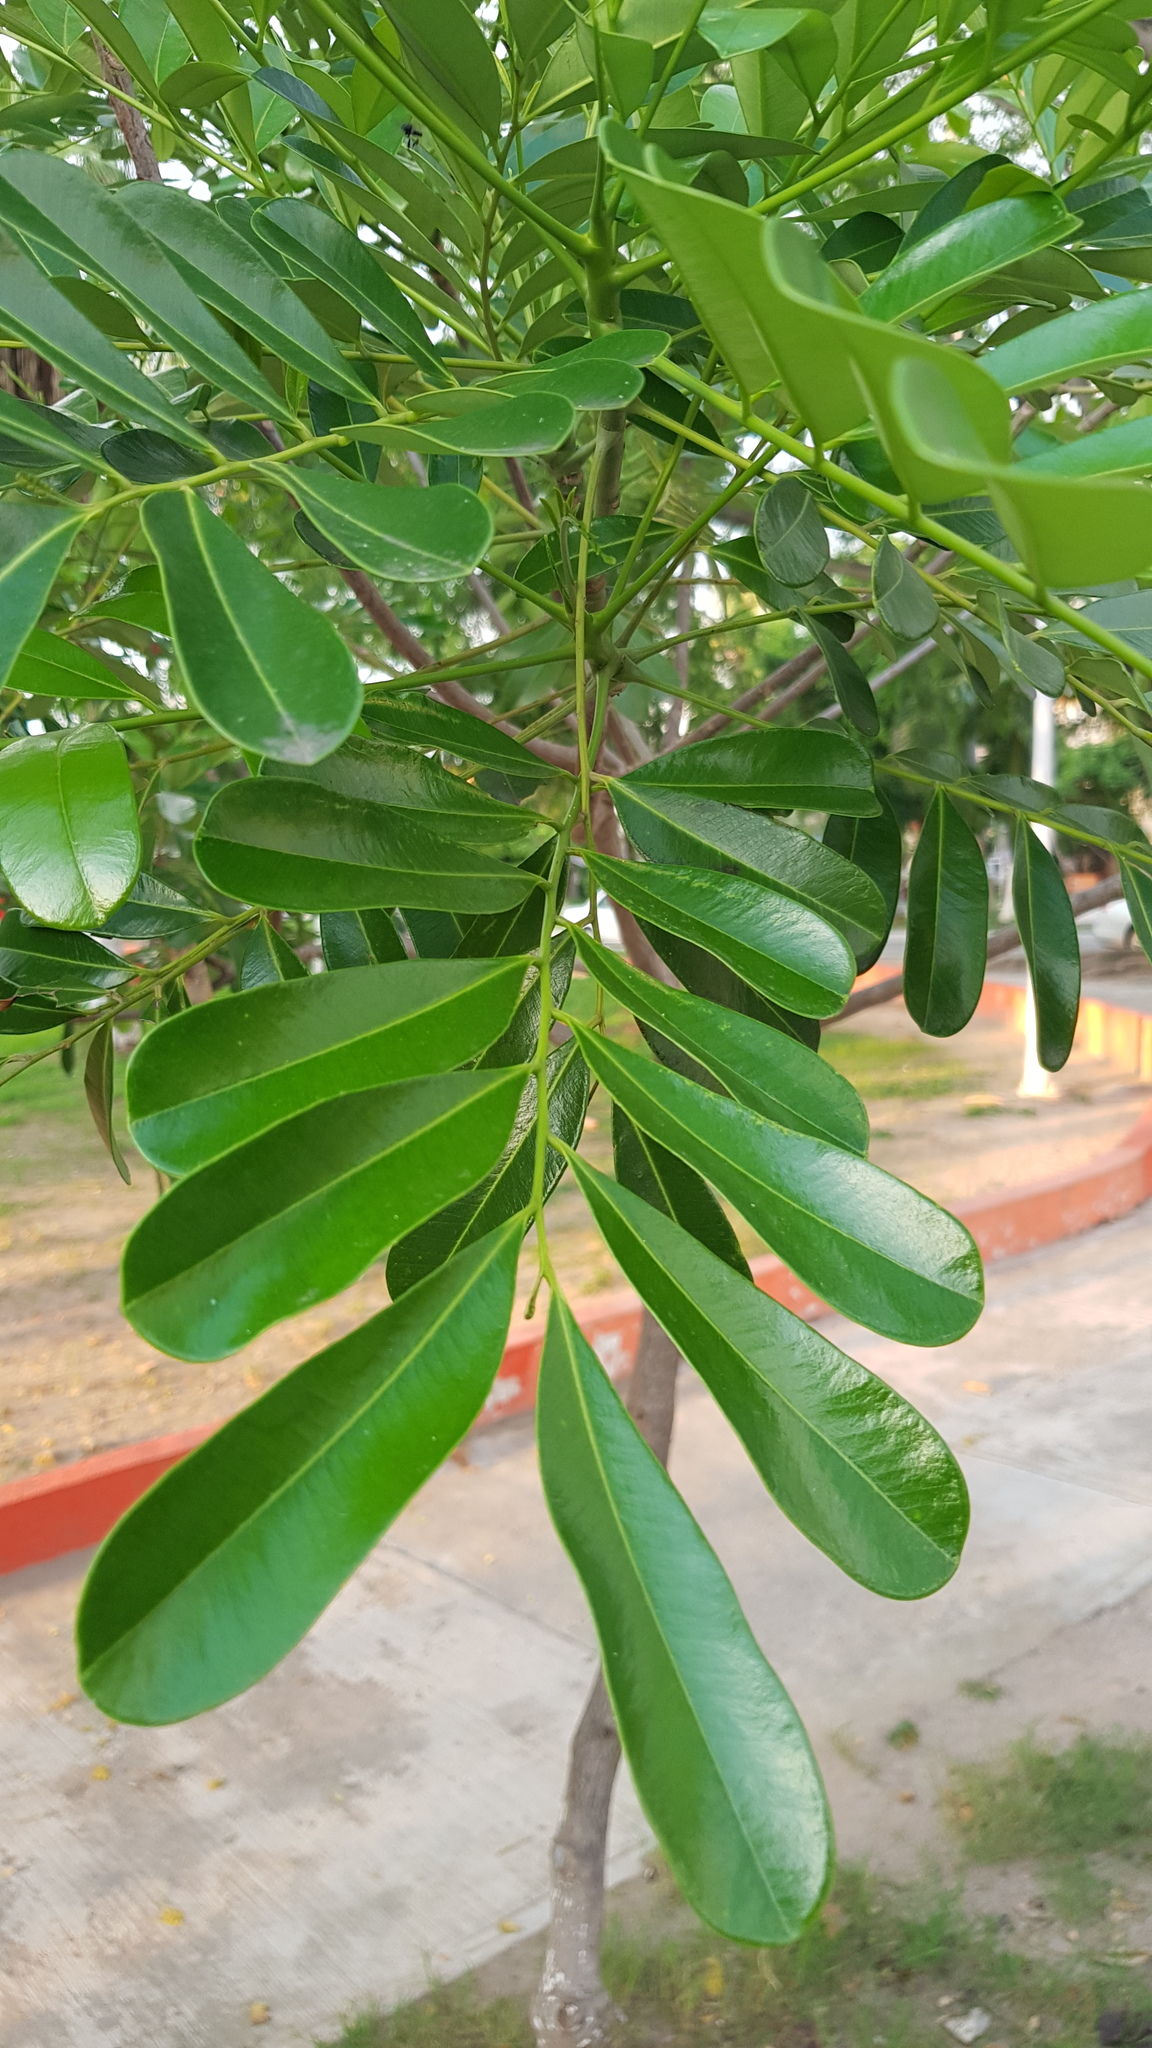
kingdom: Plantae
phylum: Tracheophyta
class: Magnoliopsida
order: Sapindales
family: Simaroubaceae
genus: Simarouba
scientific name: Simarouba amara
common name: Bitterwood
